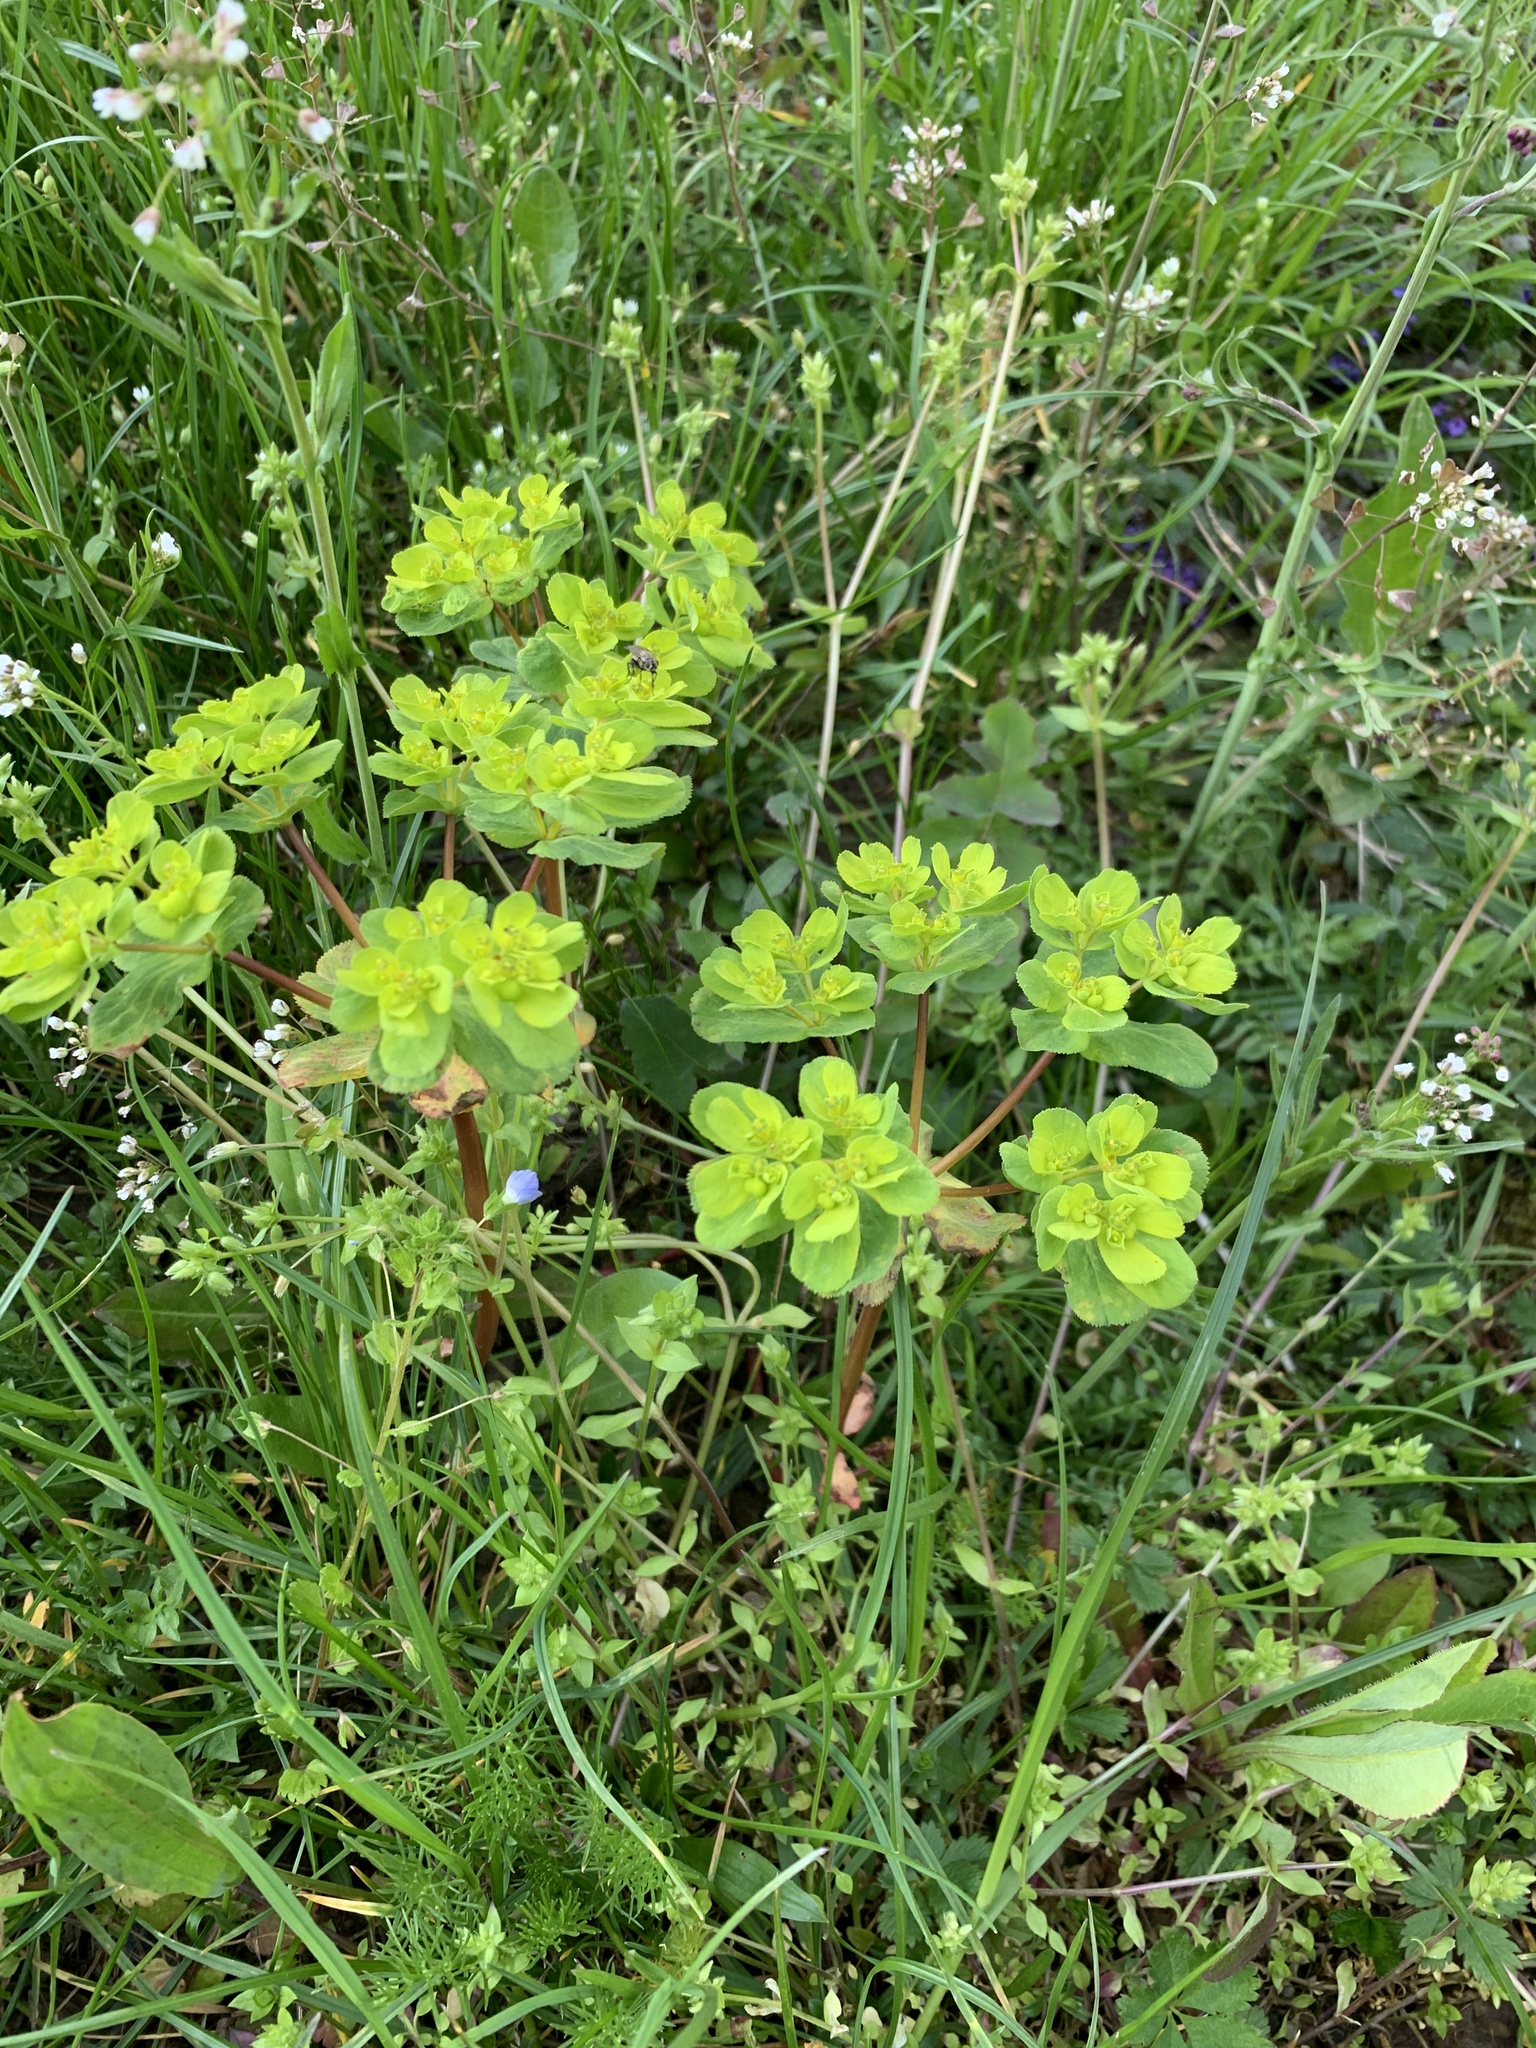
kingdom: Plantae
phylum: Tracheophyta
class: Magnoliopsida
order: Malpighiales
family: Euphorbiaceae
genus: Euphorbia
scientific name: Euphorbia helioscopia
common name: Sun spurge
